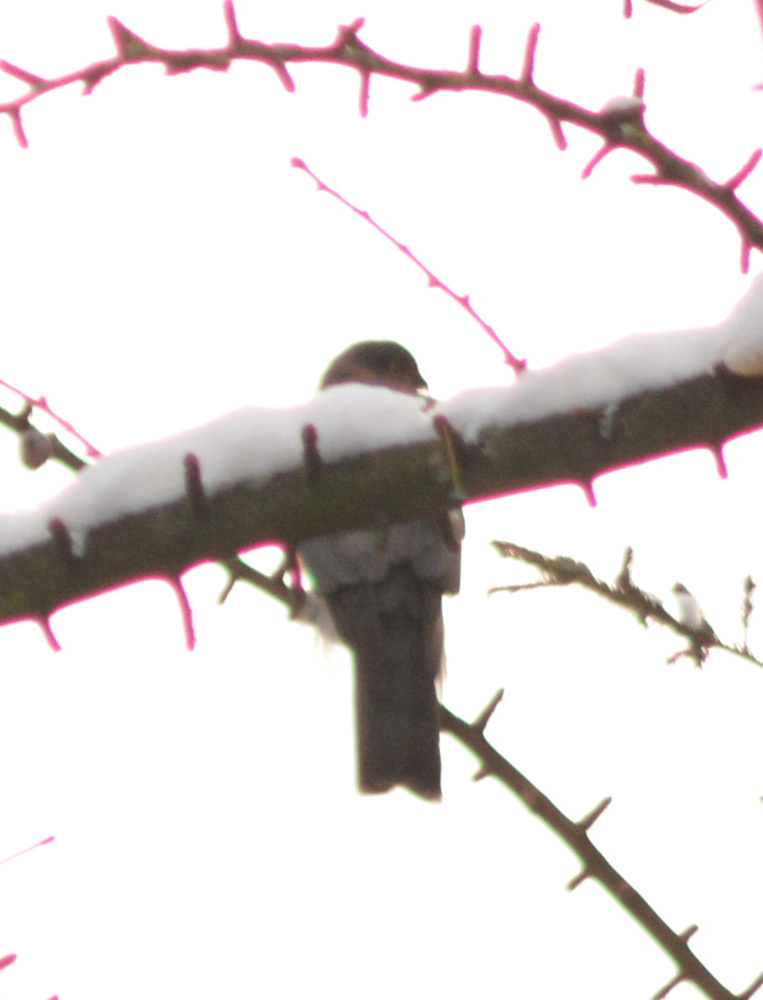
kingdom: Animalia
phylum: Chordata
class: Aves
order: Accipitriformes
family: Accipitridae
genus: Accipiter
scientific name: Accipiter nisus
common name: Eurasian sparrowhawk
